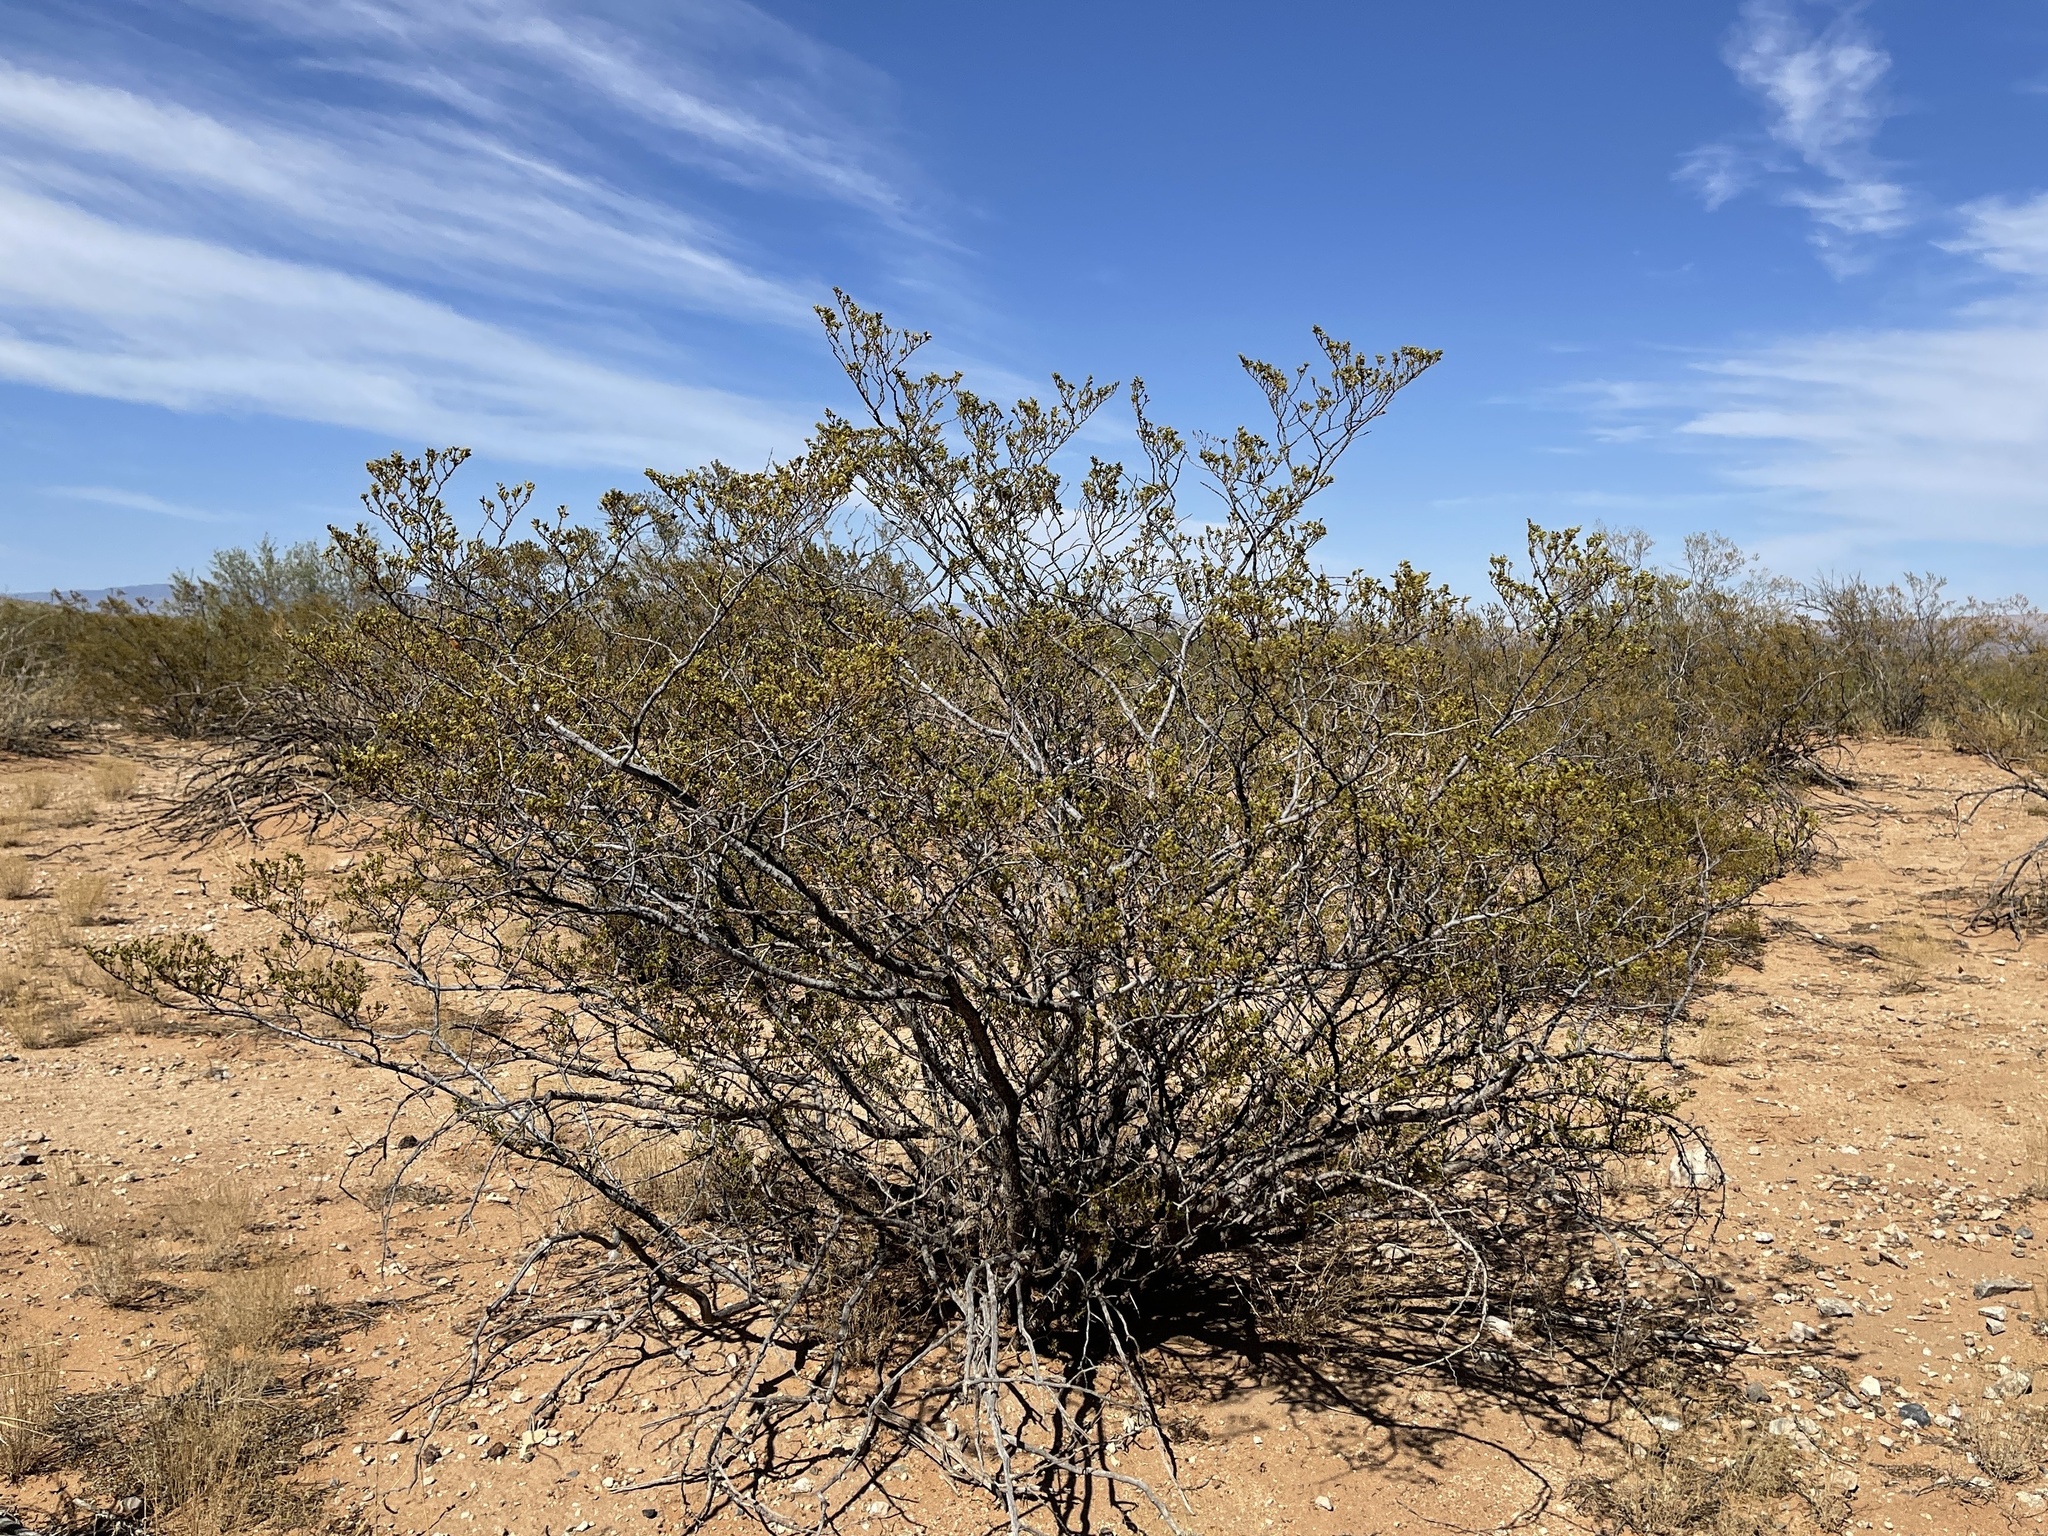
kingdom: Plantae
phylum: Tracheophyta
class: Magnoliopsida
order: Zygophyllales
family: Zygophyllaceae
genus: Larrea
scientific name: Larrea tridentata
